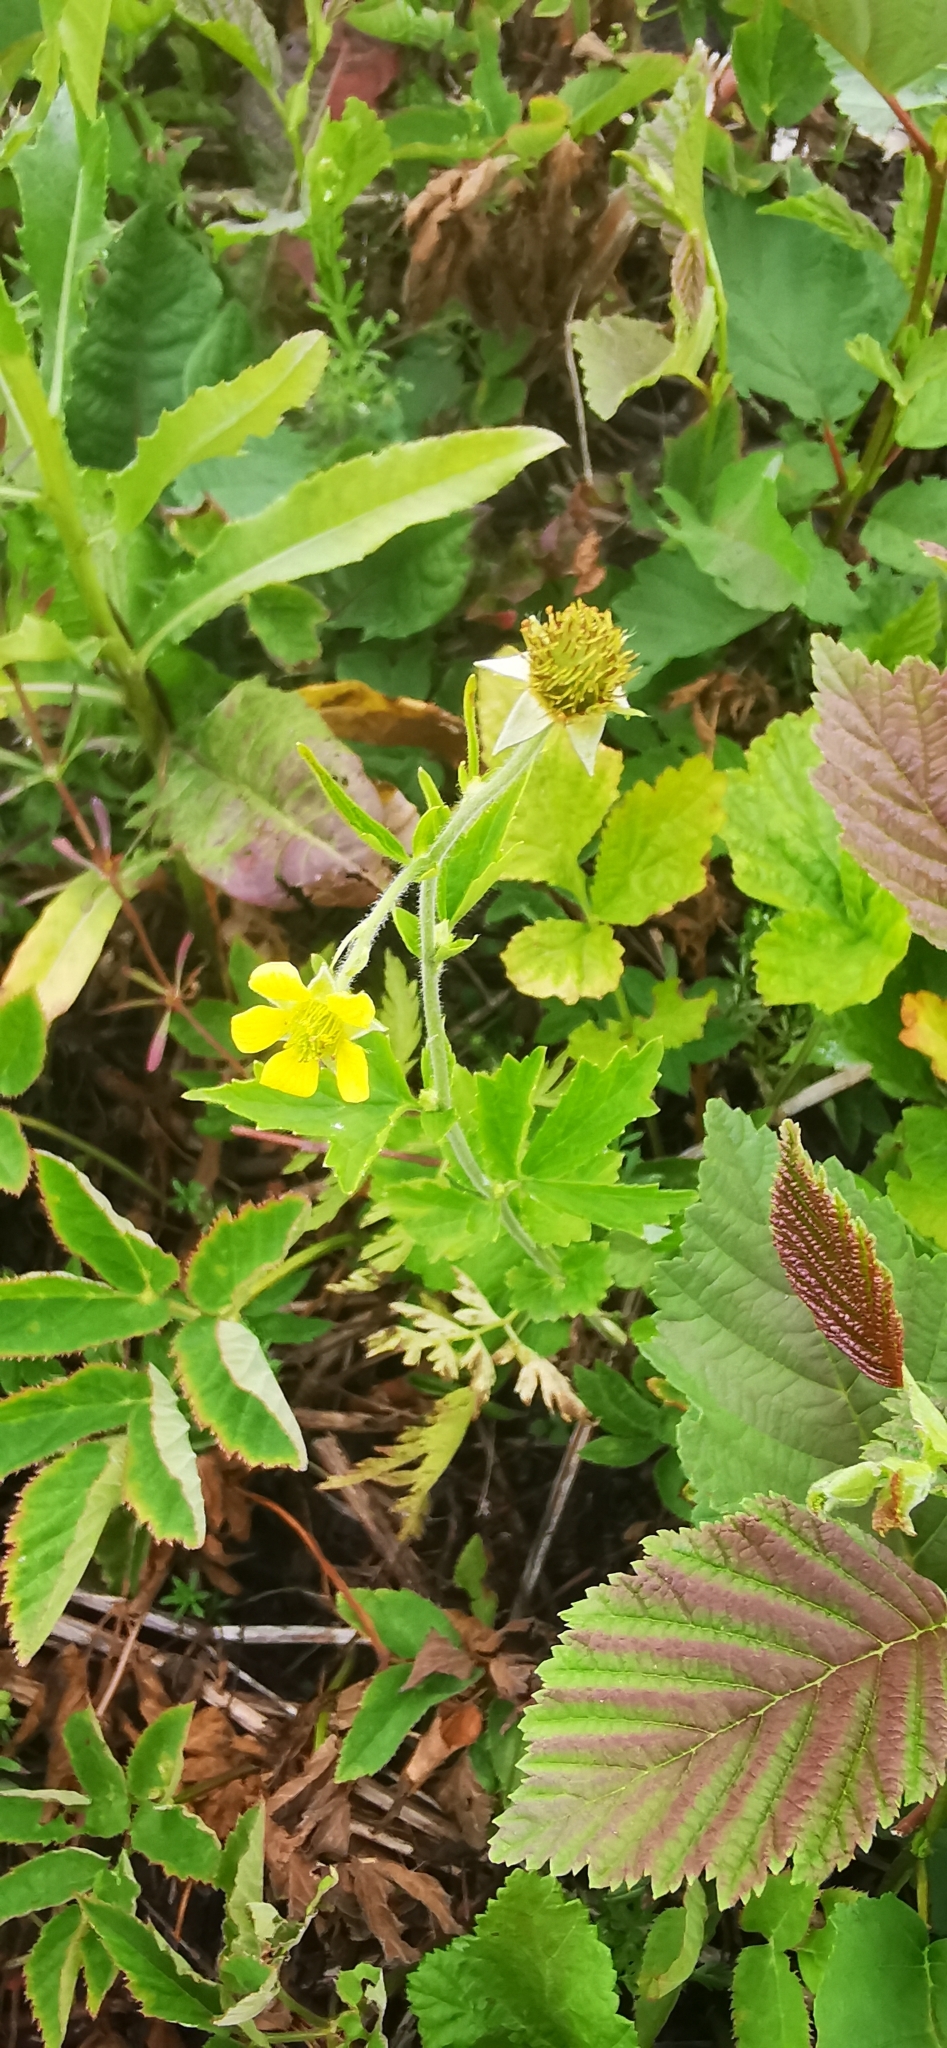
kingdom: Plantae
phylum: Tracheophyta
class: Magnoliopsida
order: Rosales
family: Rosaceae
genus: Geum
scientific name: Geum urbanum
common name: Wood avens
